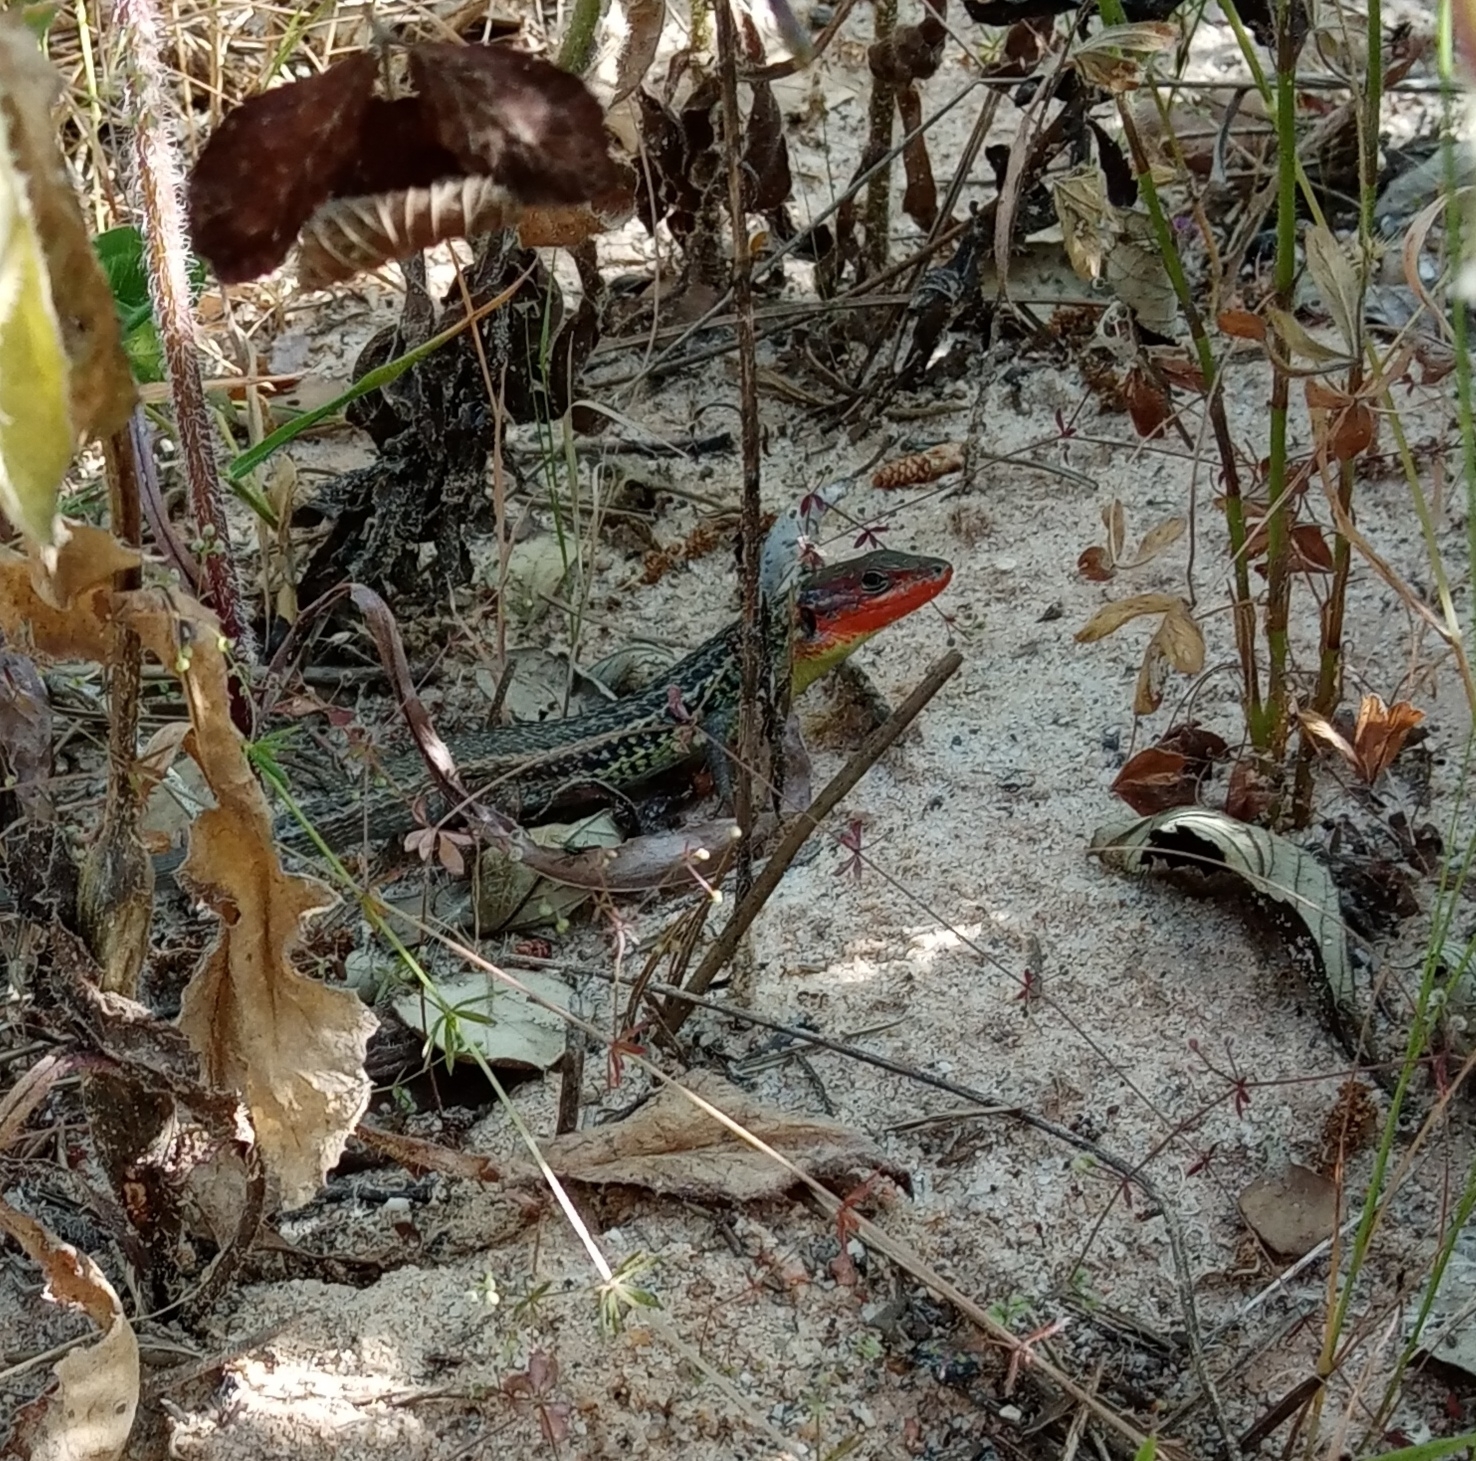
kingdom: Animalia
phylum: Chordata
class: Squamata
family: Lacertidae
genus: Psammodromus
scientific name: Psammodromus algirus
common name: Algerian psammodromus
